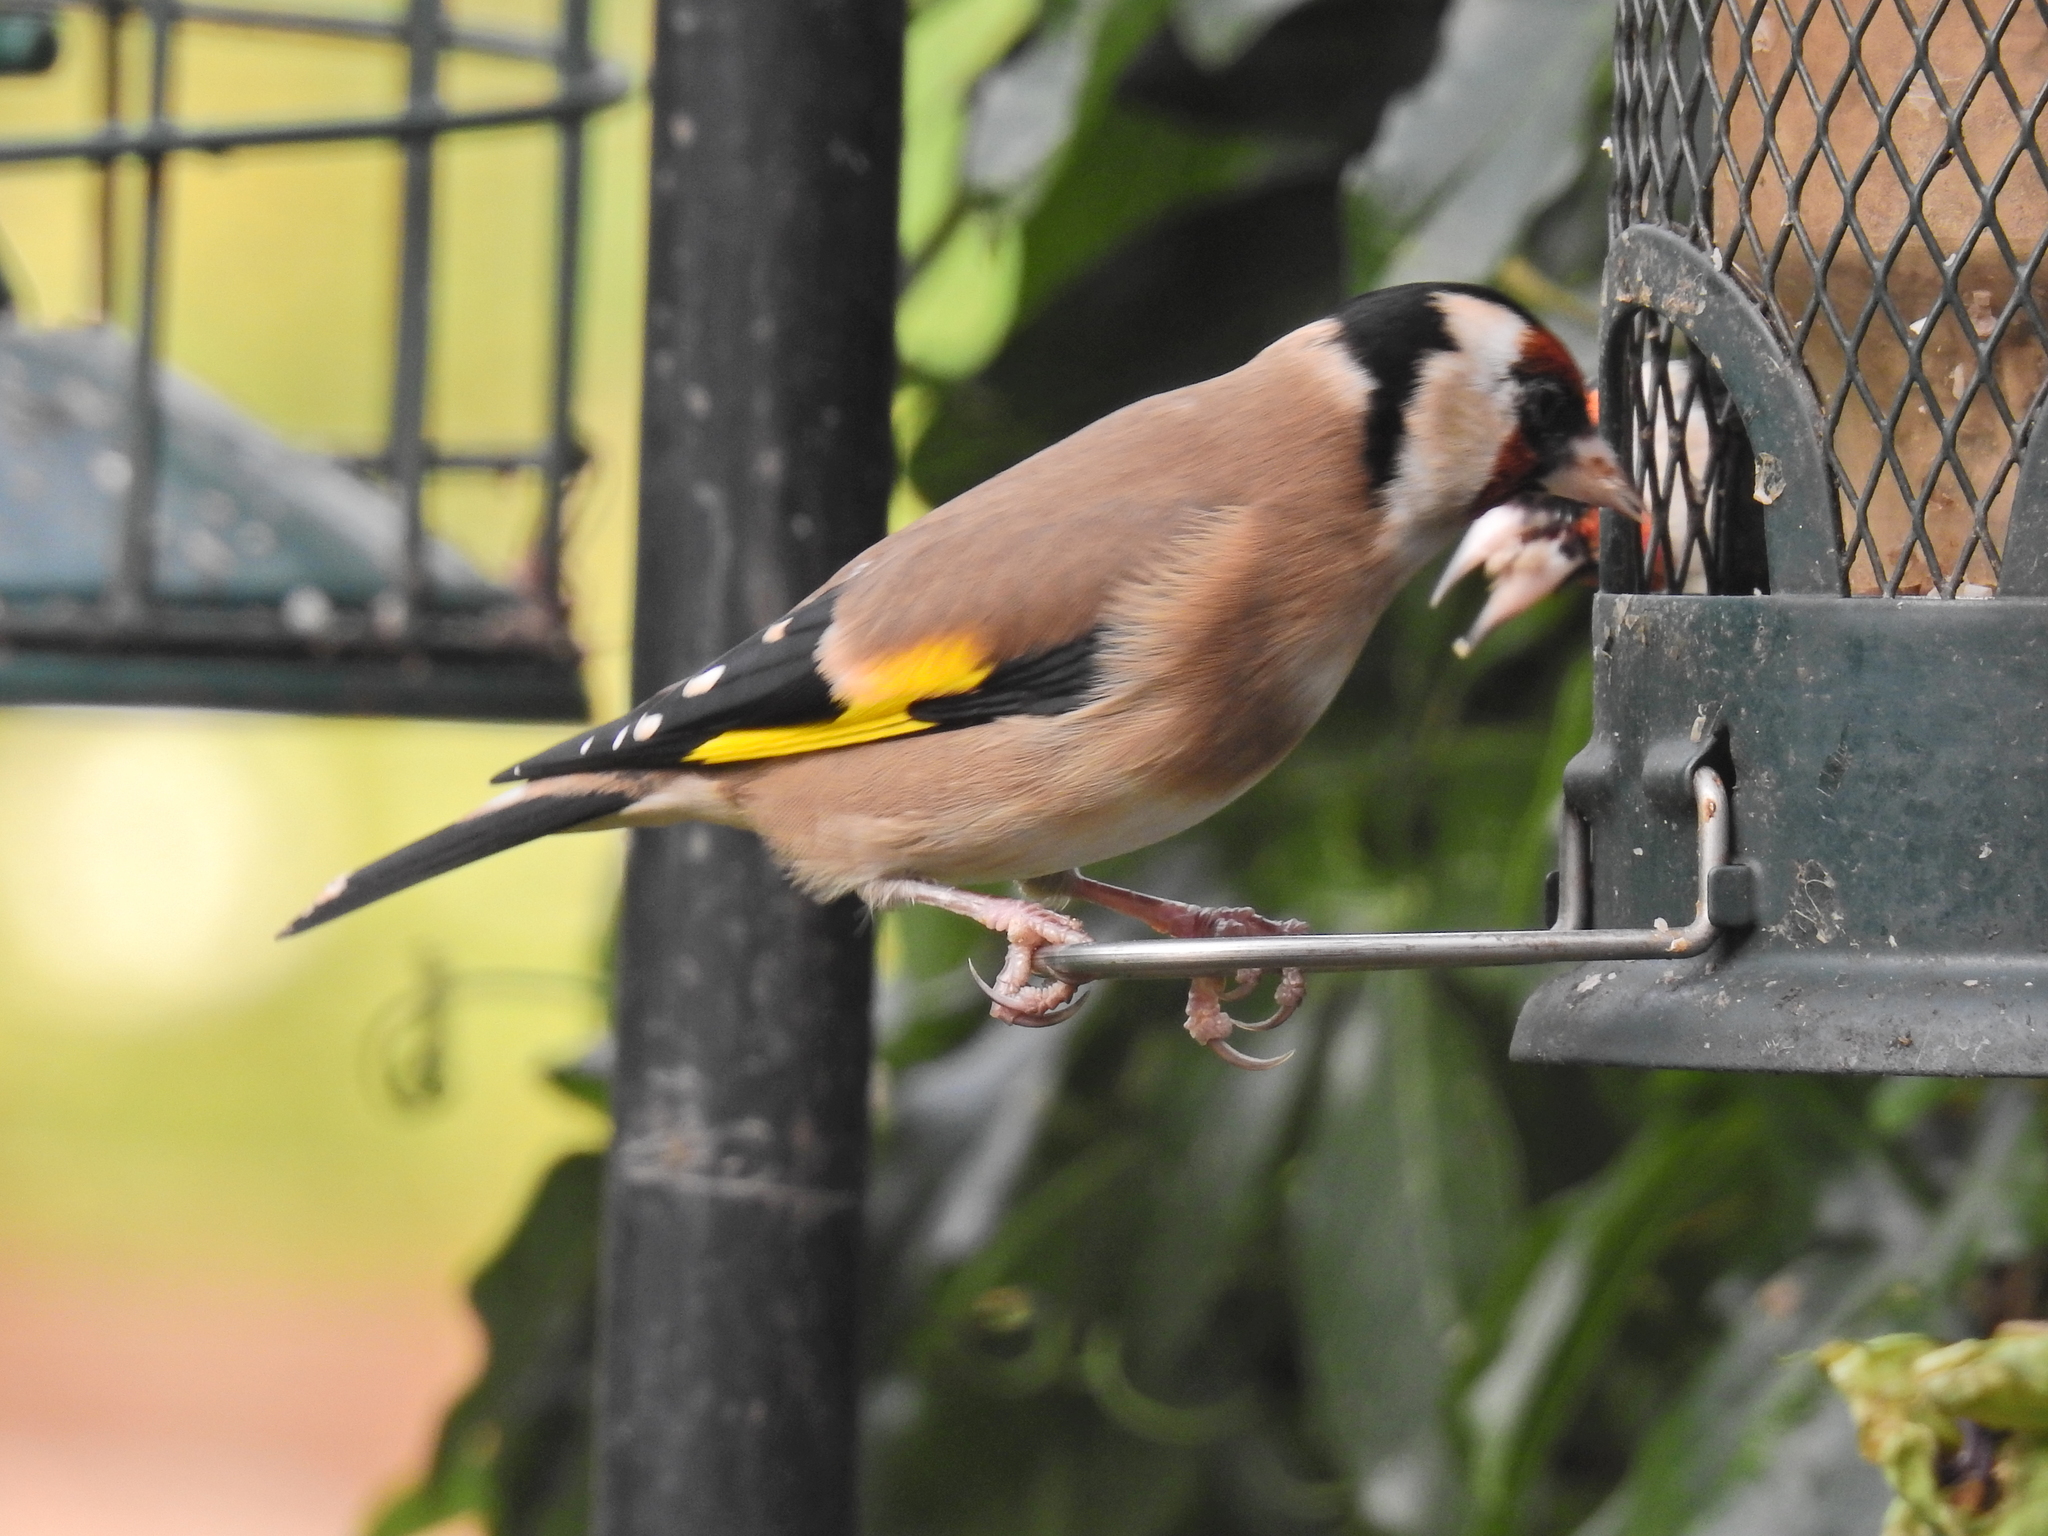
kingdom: Animalia
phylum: Chordata
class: Aves
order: Passeriformes
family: Fringillidae
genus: Carduelis
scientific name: Carduelis carduelis
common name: European goldfinch
